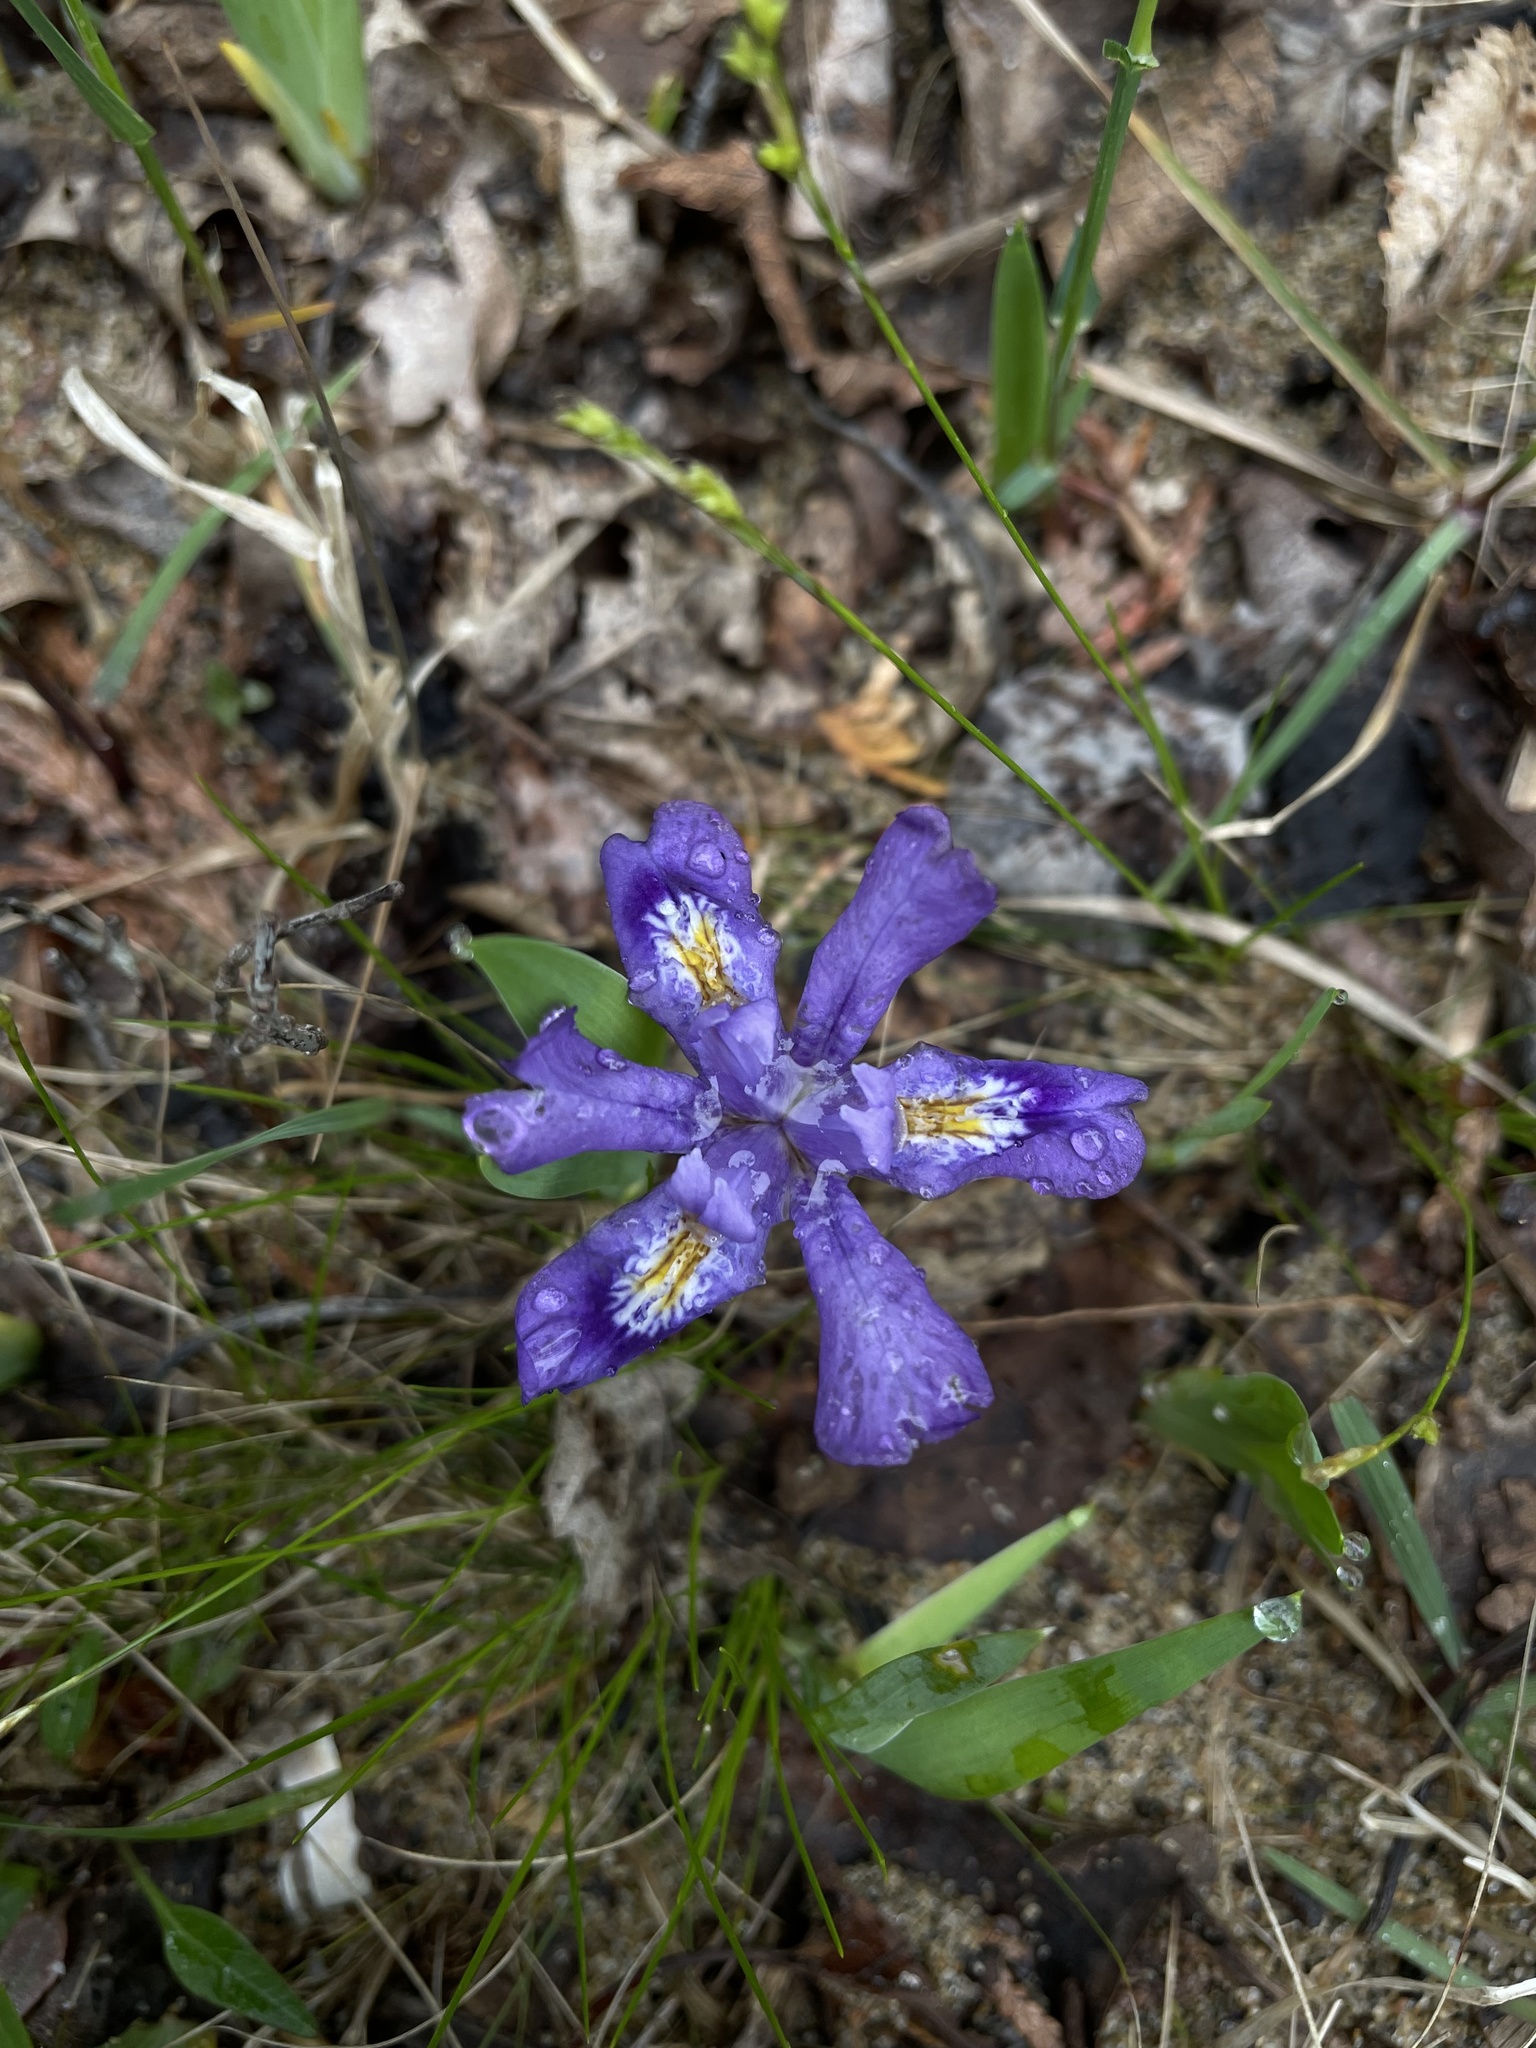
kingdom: Plantae
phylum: Tracheophyta
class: Liliopsida
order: Asparagales
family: Iridaceae
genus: Iris
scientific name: Iris lacustris
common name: Dwarf lake iris
